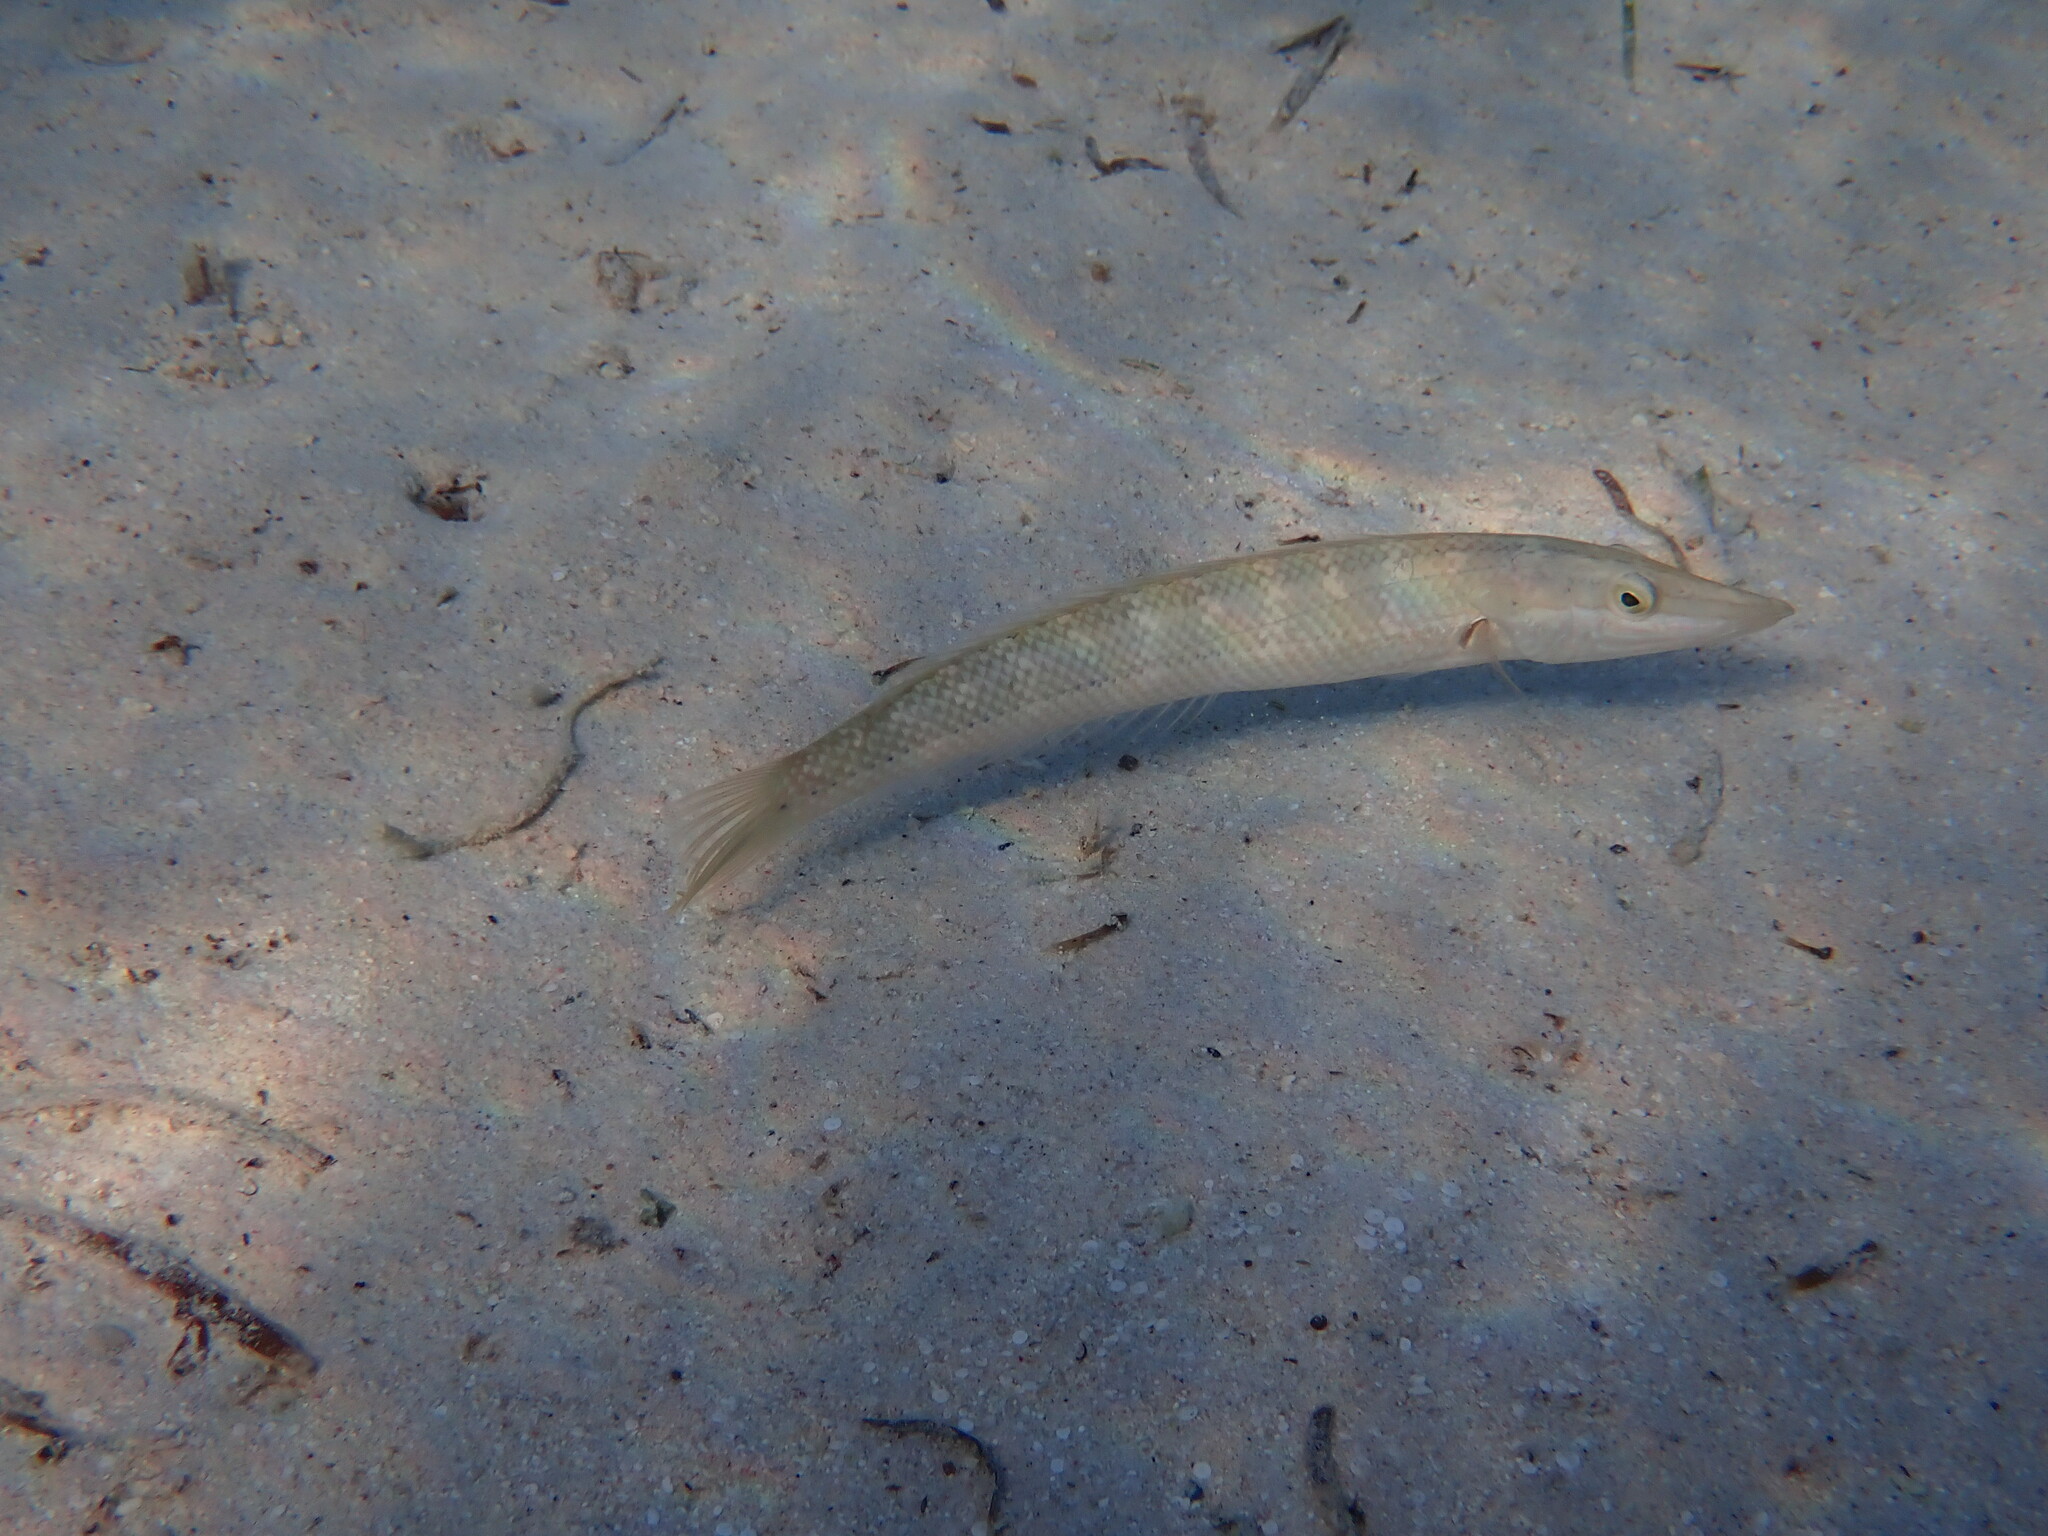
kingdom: Animalia
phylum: Chordata
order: Perciformes
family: Labridae
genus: Cheilio
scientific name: Cheilio inermis
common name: Cigar wrasse
